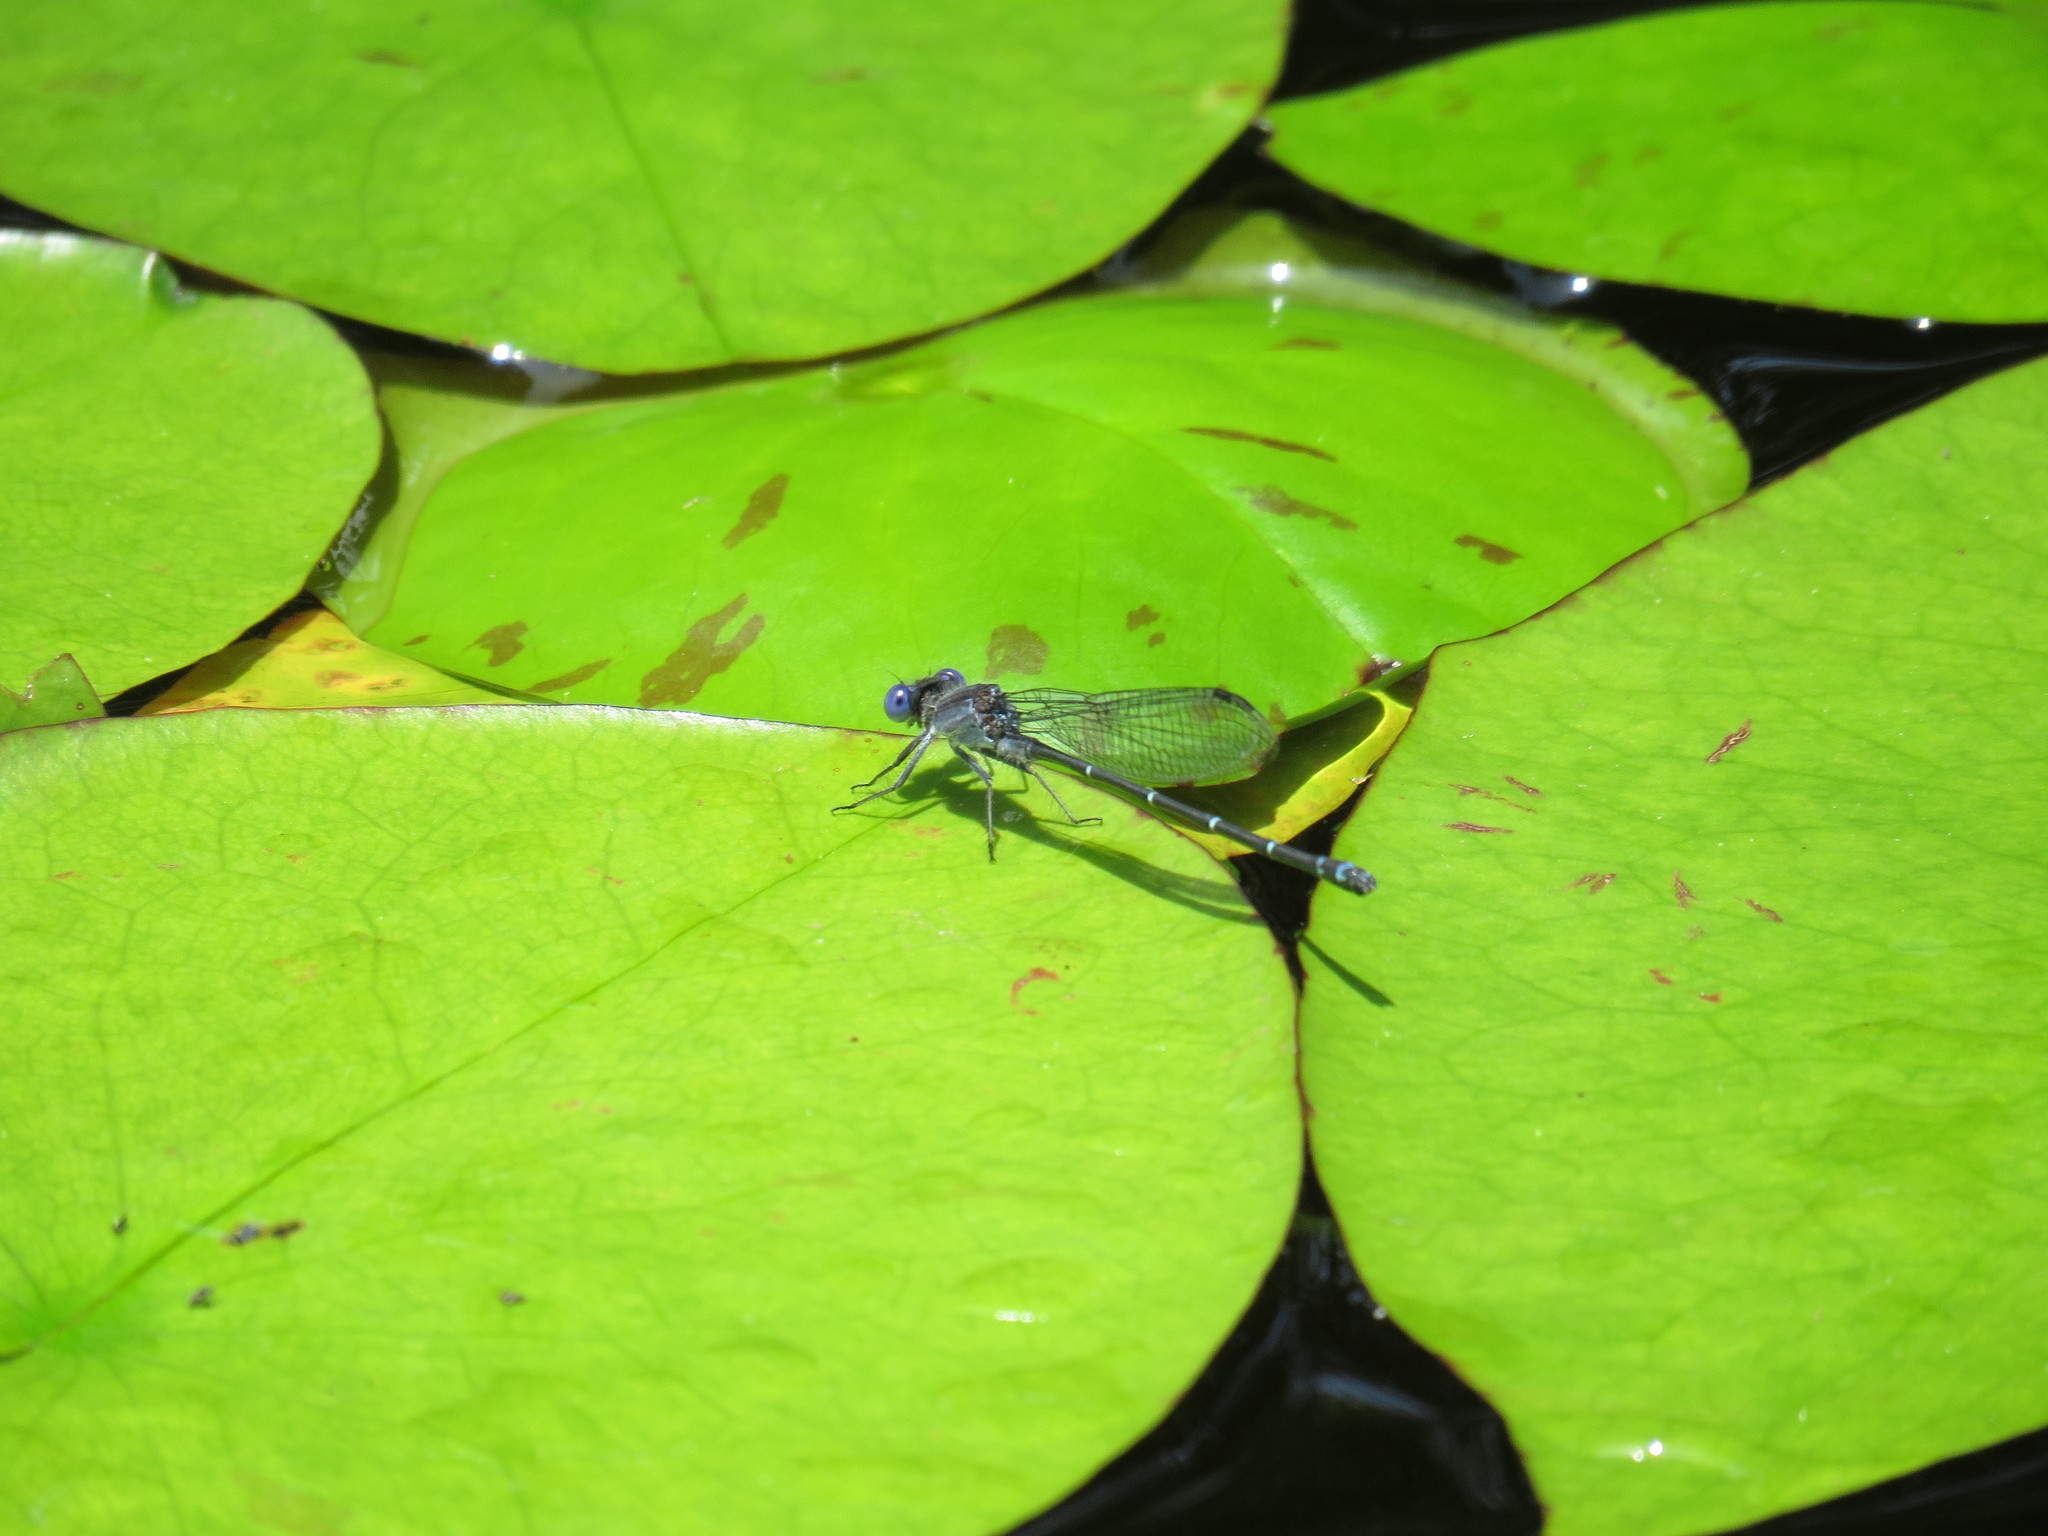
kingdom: Animalia
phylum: Arthropoda
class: Insecta
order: Odonata
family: Coenagrionidae
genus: Argia
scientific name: Argia translata
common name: Dusky dancer
